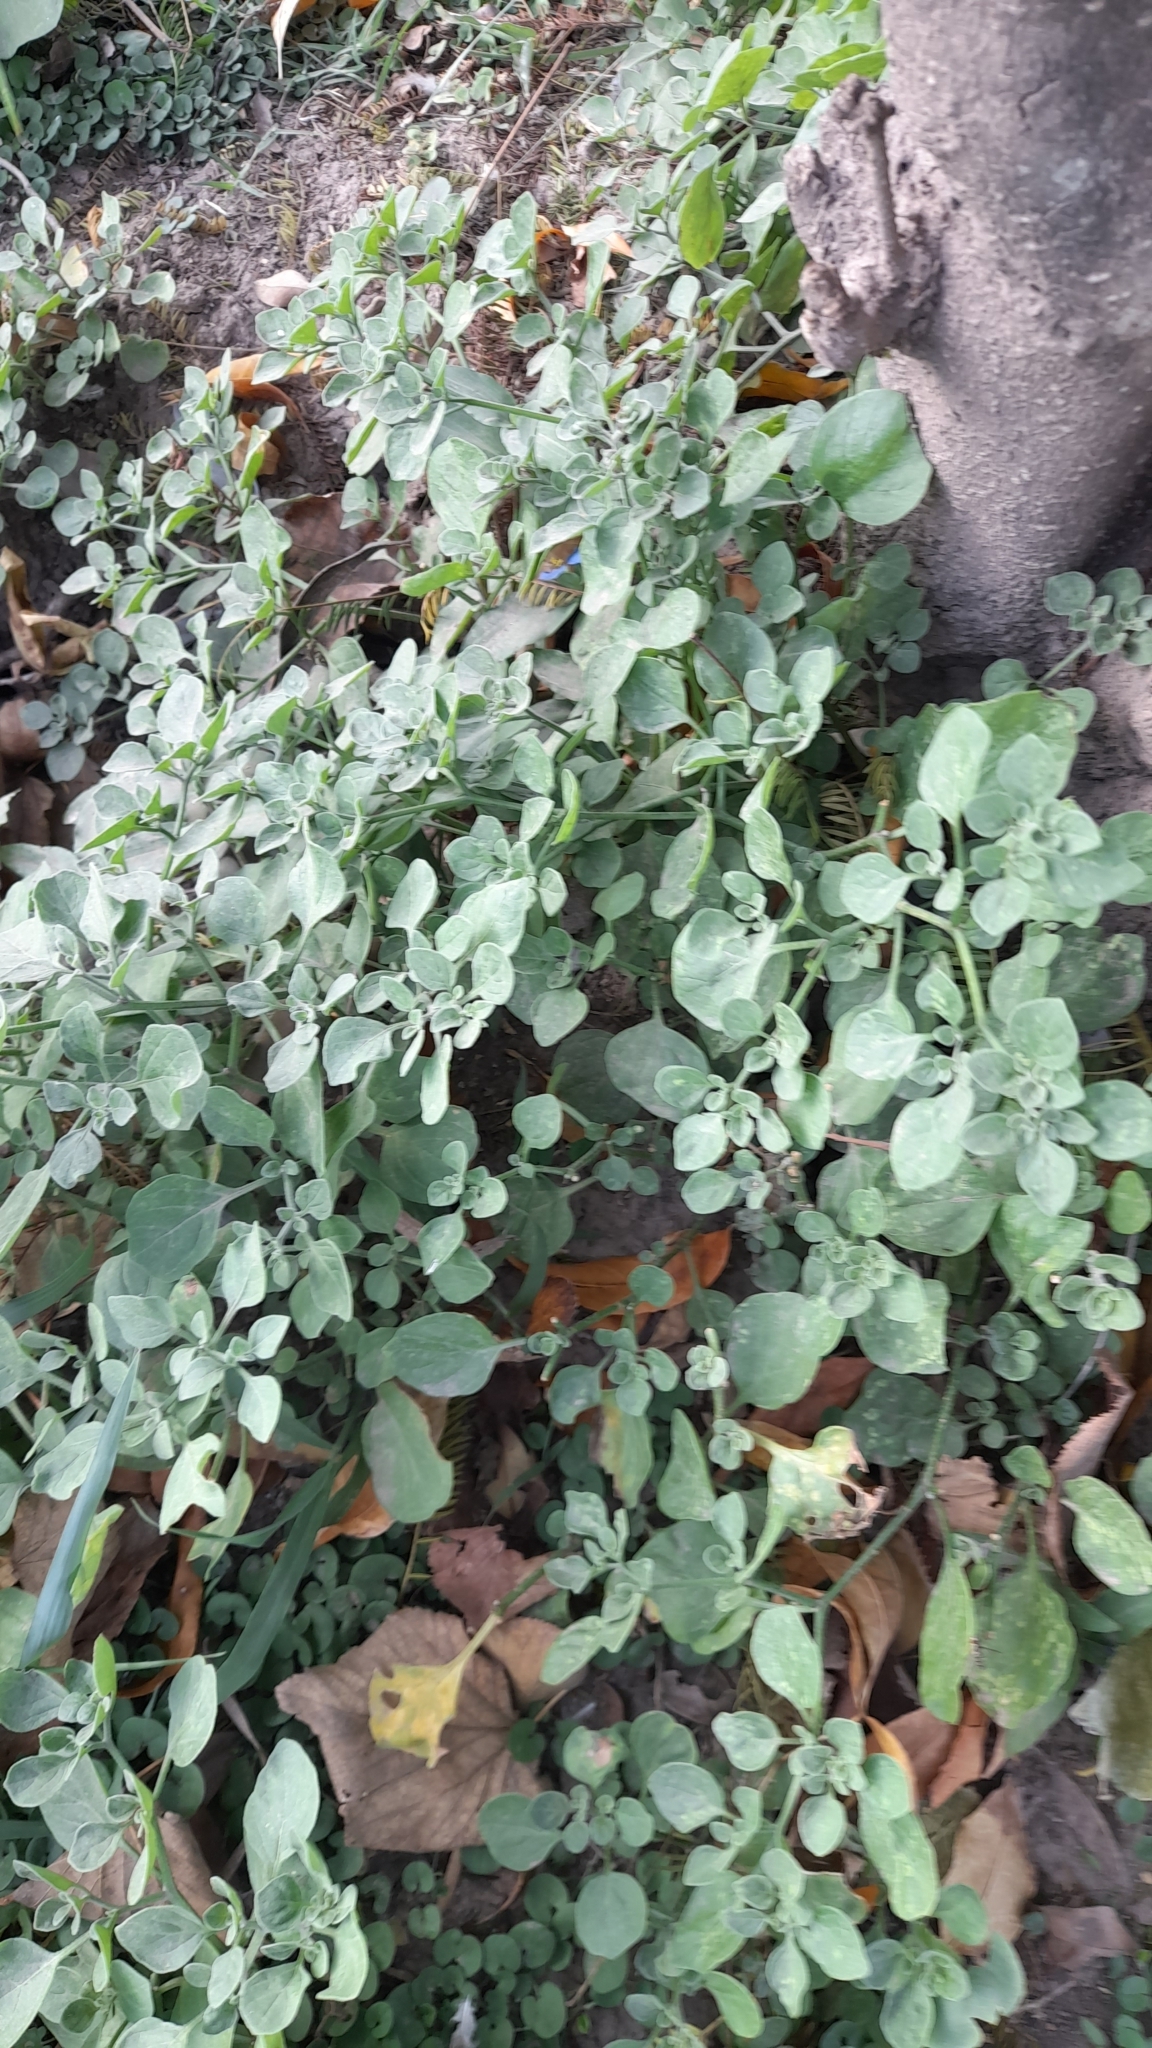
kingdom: Plantae
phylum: Tracheophyta
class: Magnoliopsida
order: Solanales
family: Solanaceae
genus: Salpichroa
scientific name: Salpichroa origanifolia
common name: Lily-of-the-valley-vine
